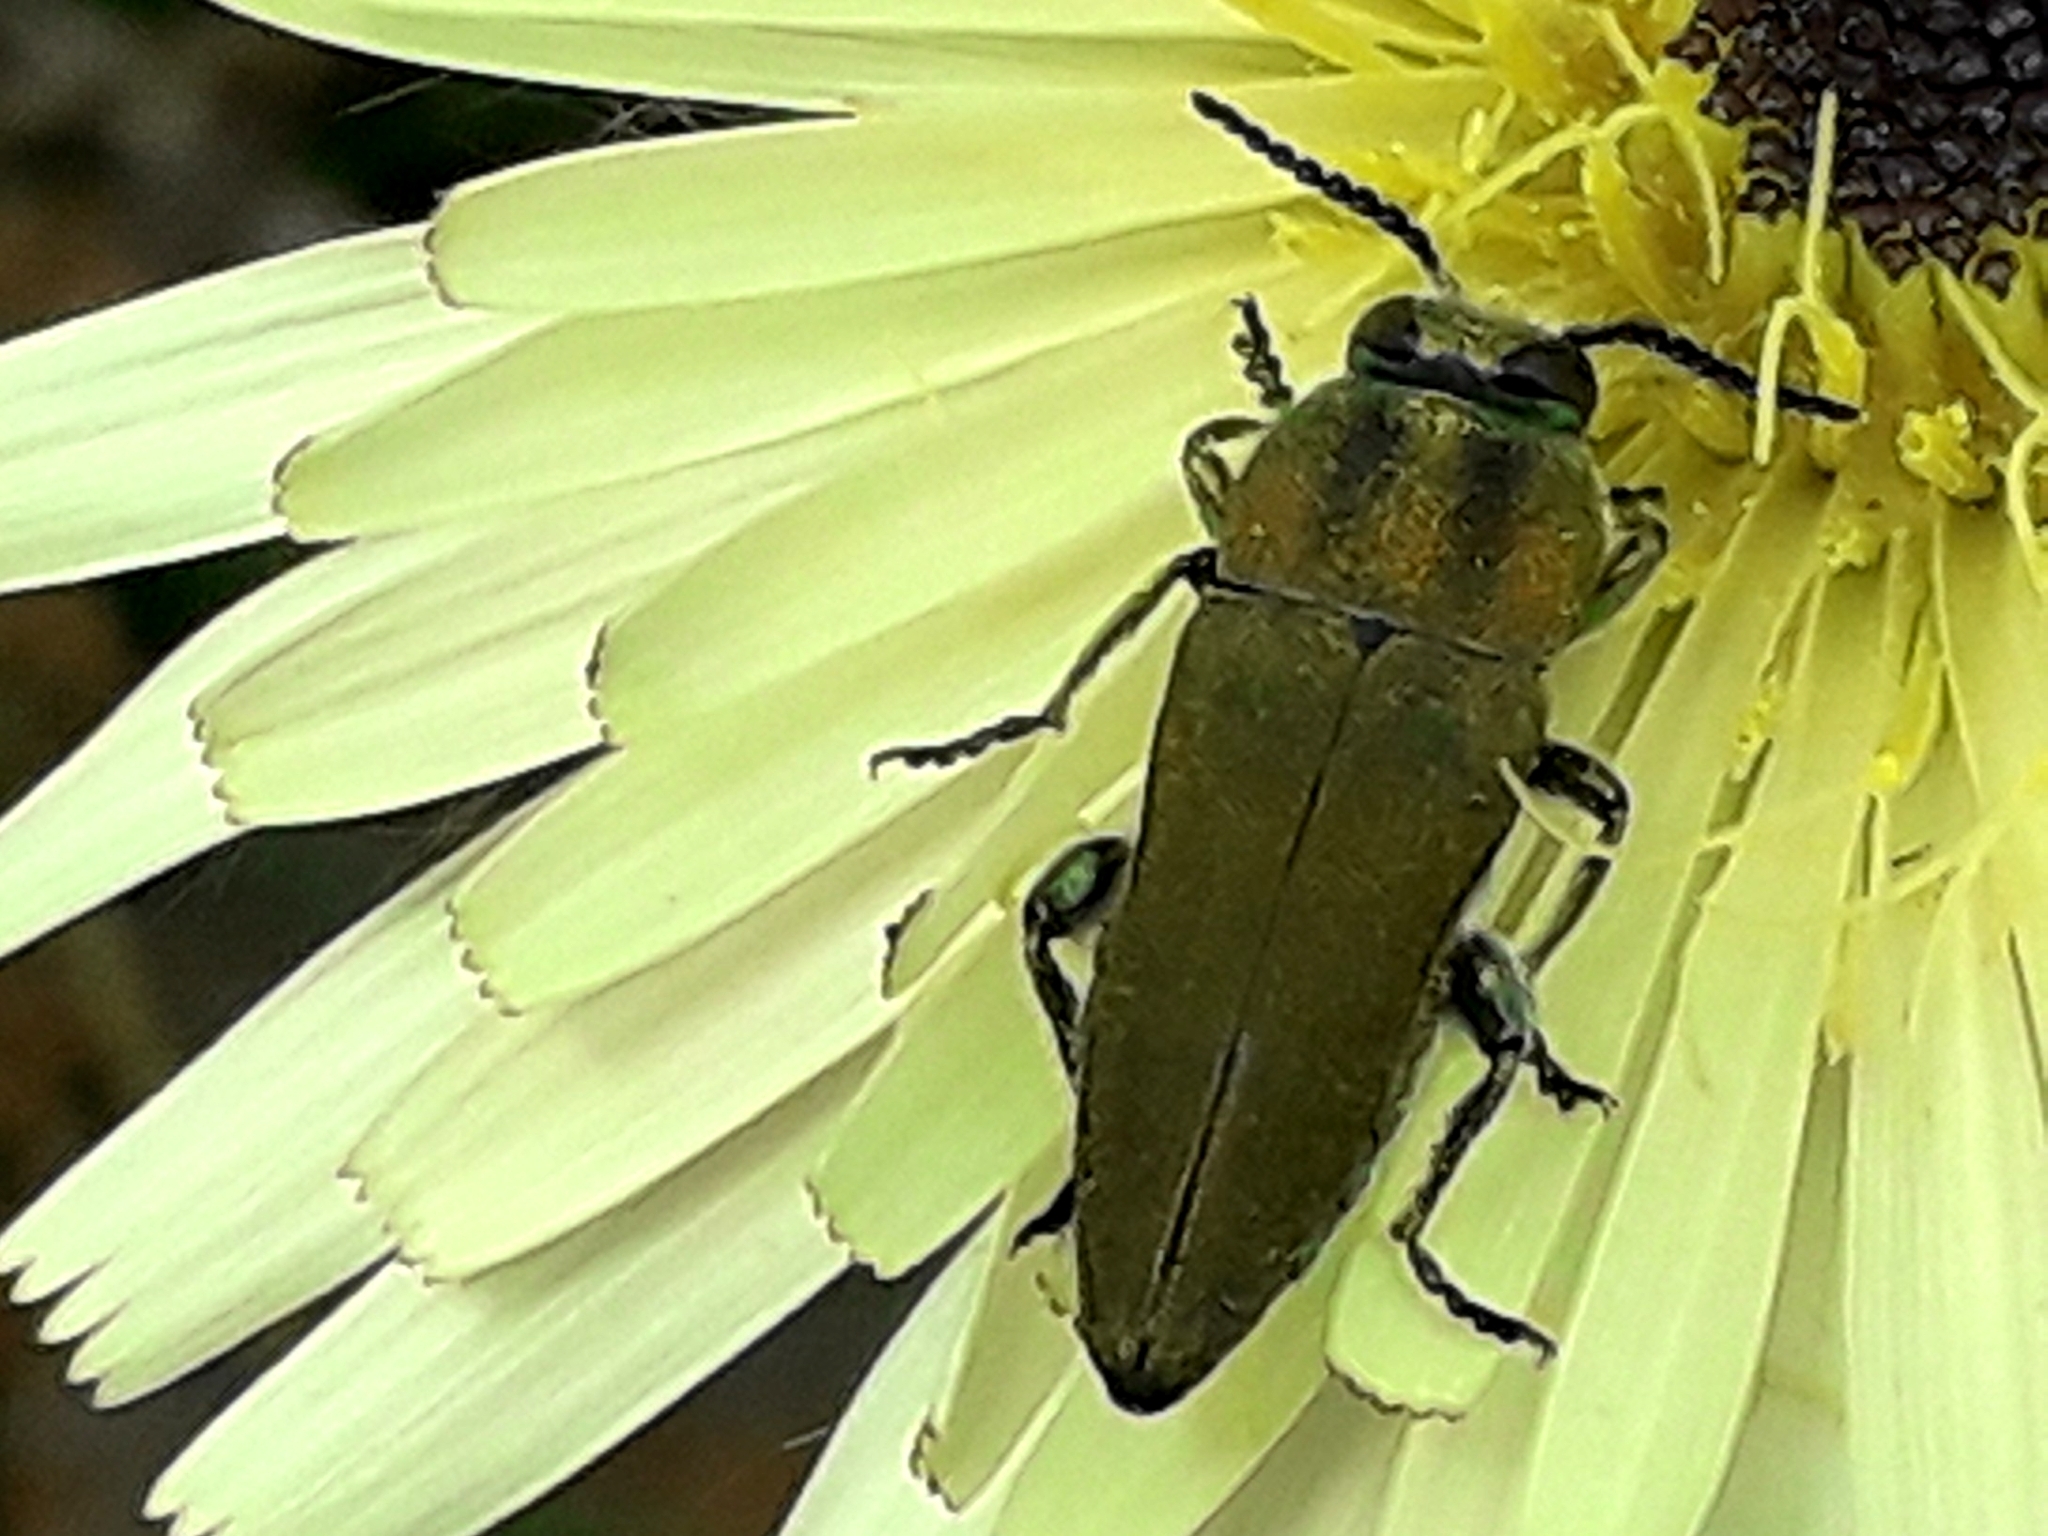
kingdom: Animalia
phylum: Arthropoda
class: Insecta
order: Coleoptera
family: Buprestidae
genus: Anthaxia
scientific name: Anthaxia hungarica
